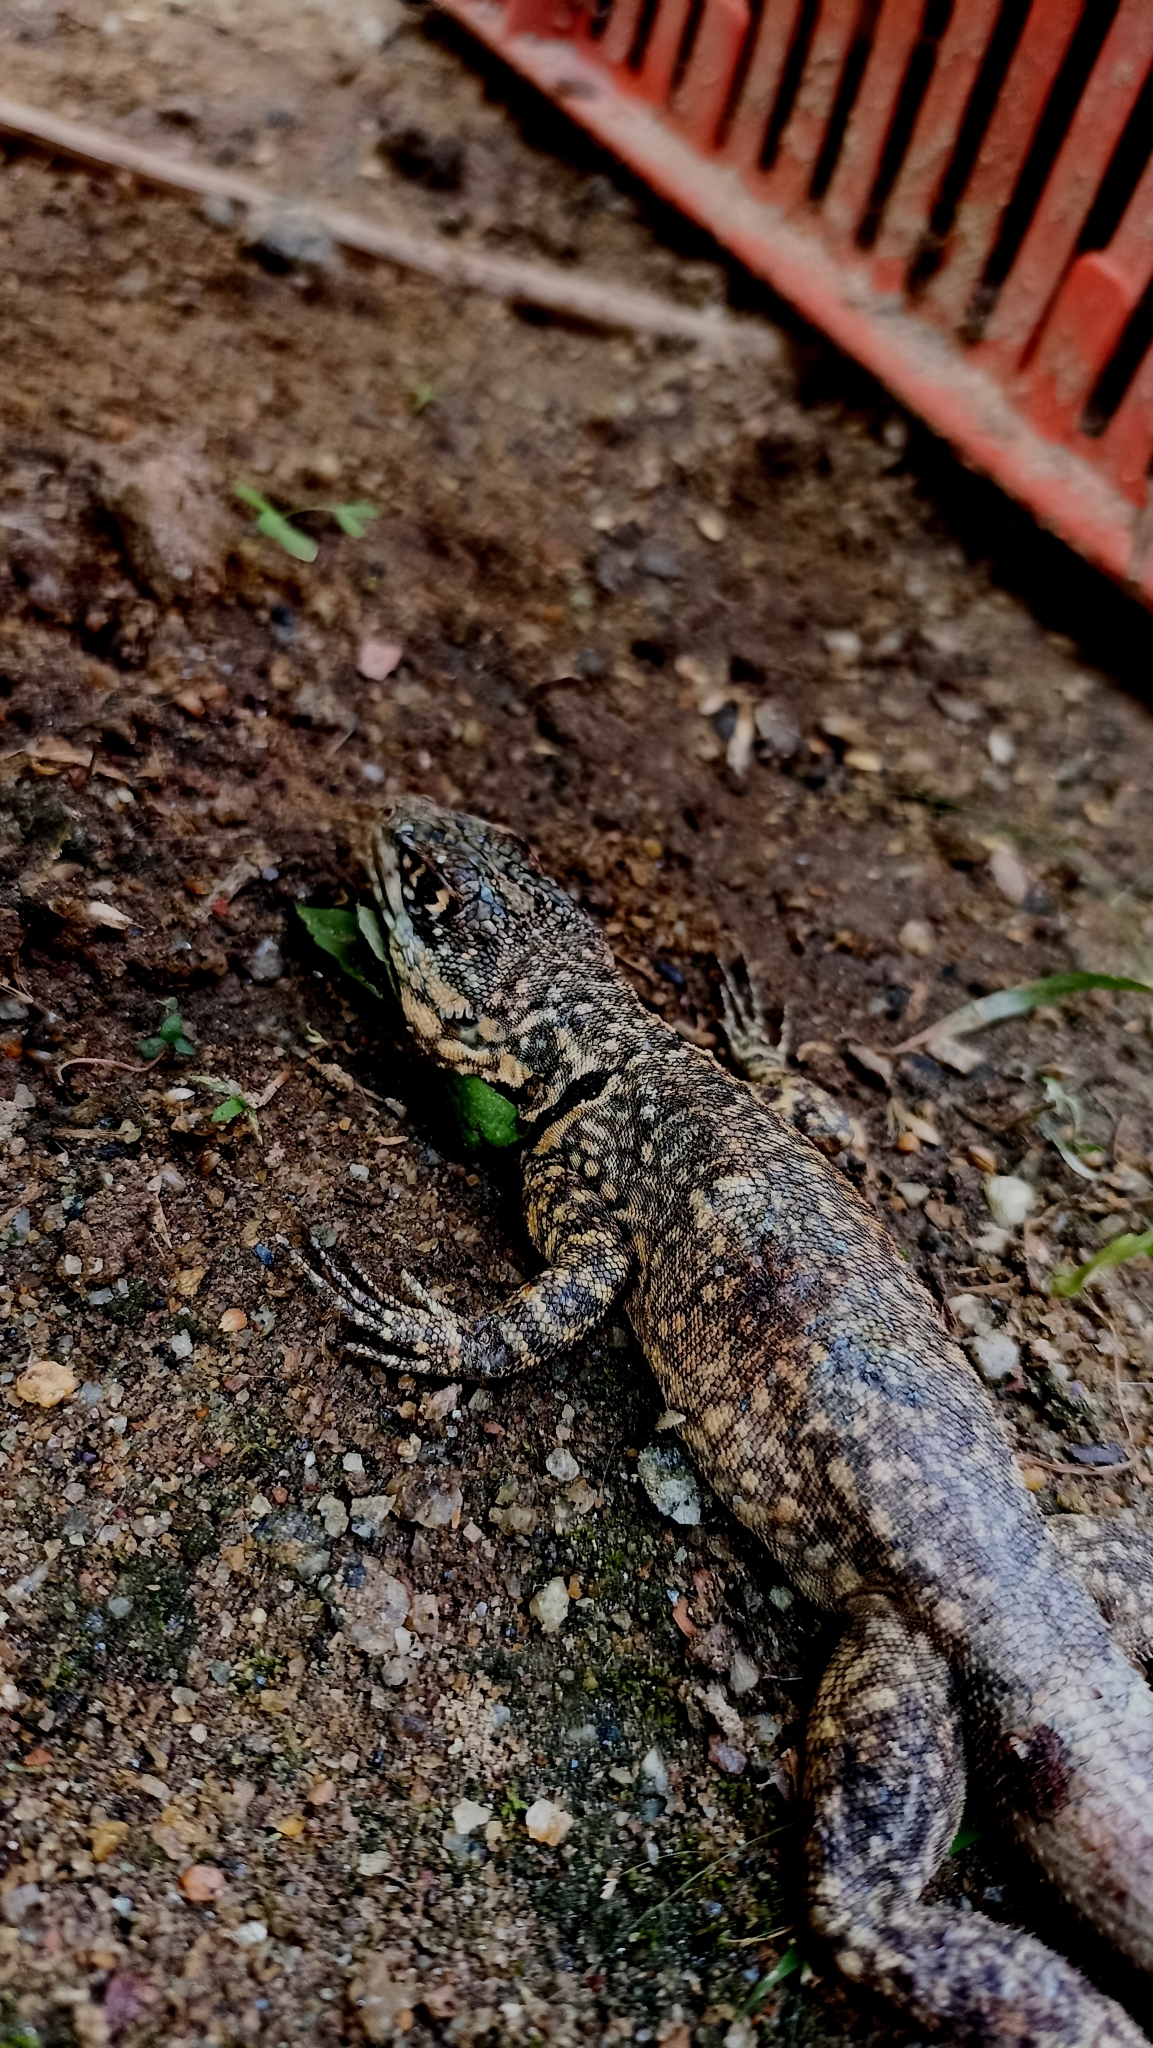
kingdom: Animalia
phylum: Chordata
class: Squamata
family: Tropiduridae
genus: Tropidurus
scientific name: Tropidurus torquatus
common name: Amazon lava lizard
